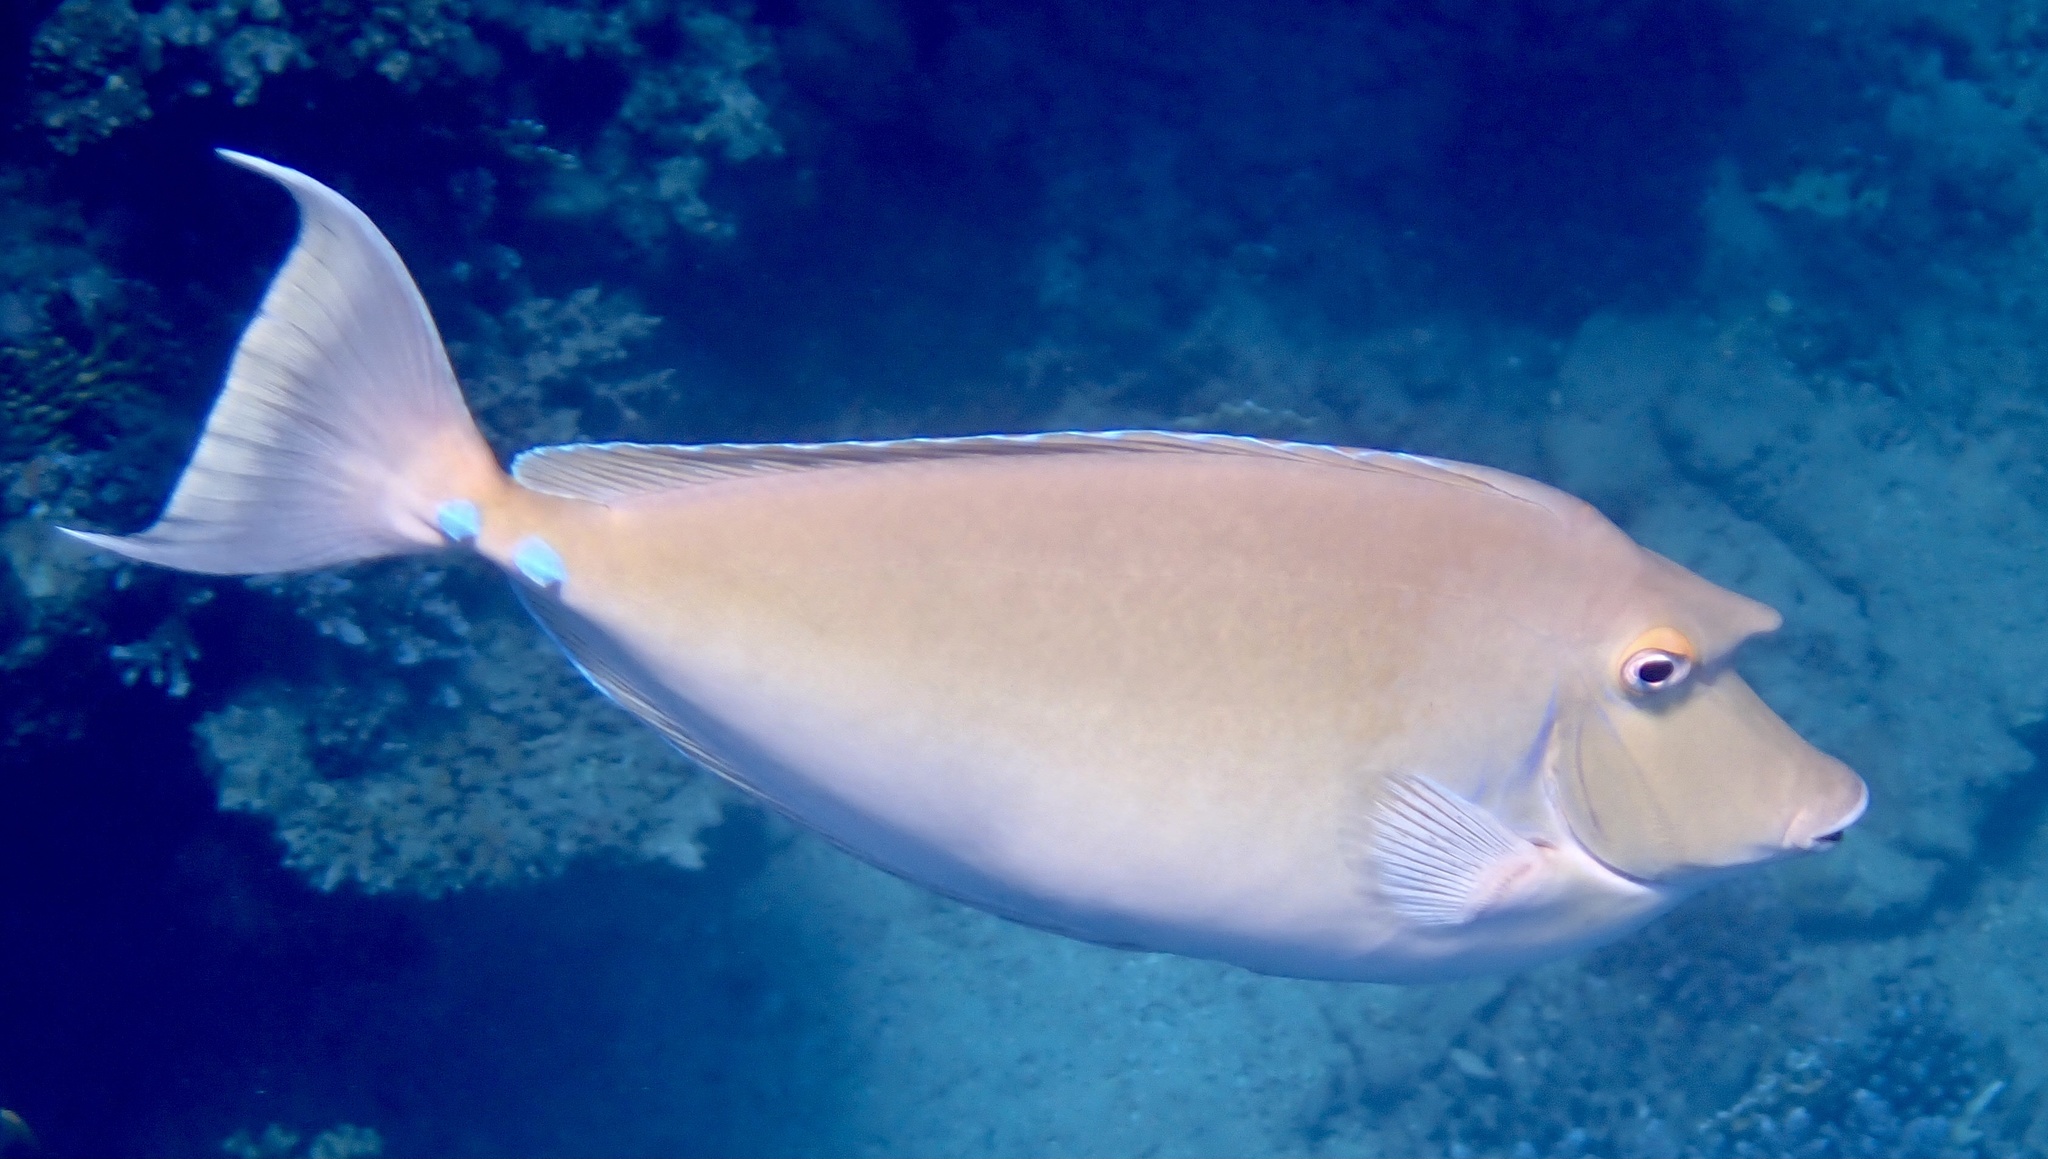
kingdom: Animalia
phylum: Chordata
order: Perciformes
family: Acanthuridae
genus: Naso
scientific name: Naso unicornis
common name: Bluespine unicornfish
